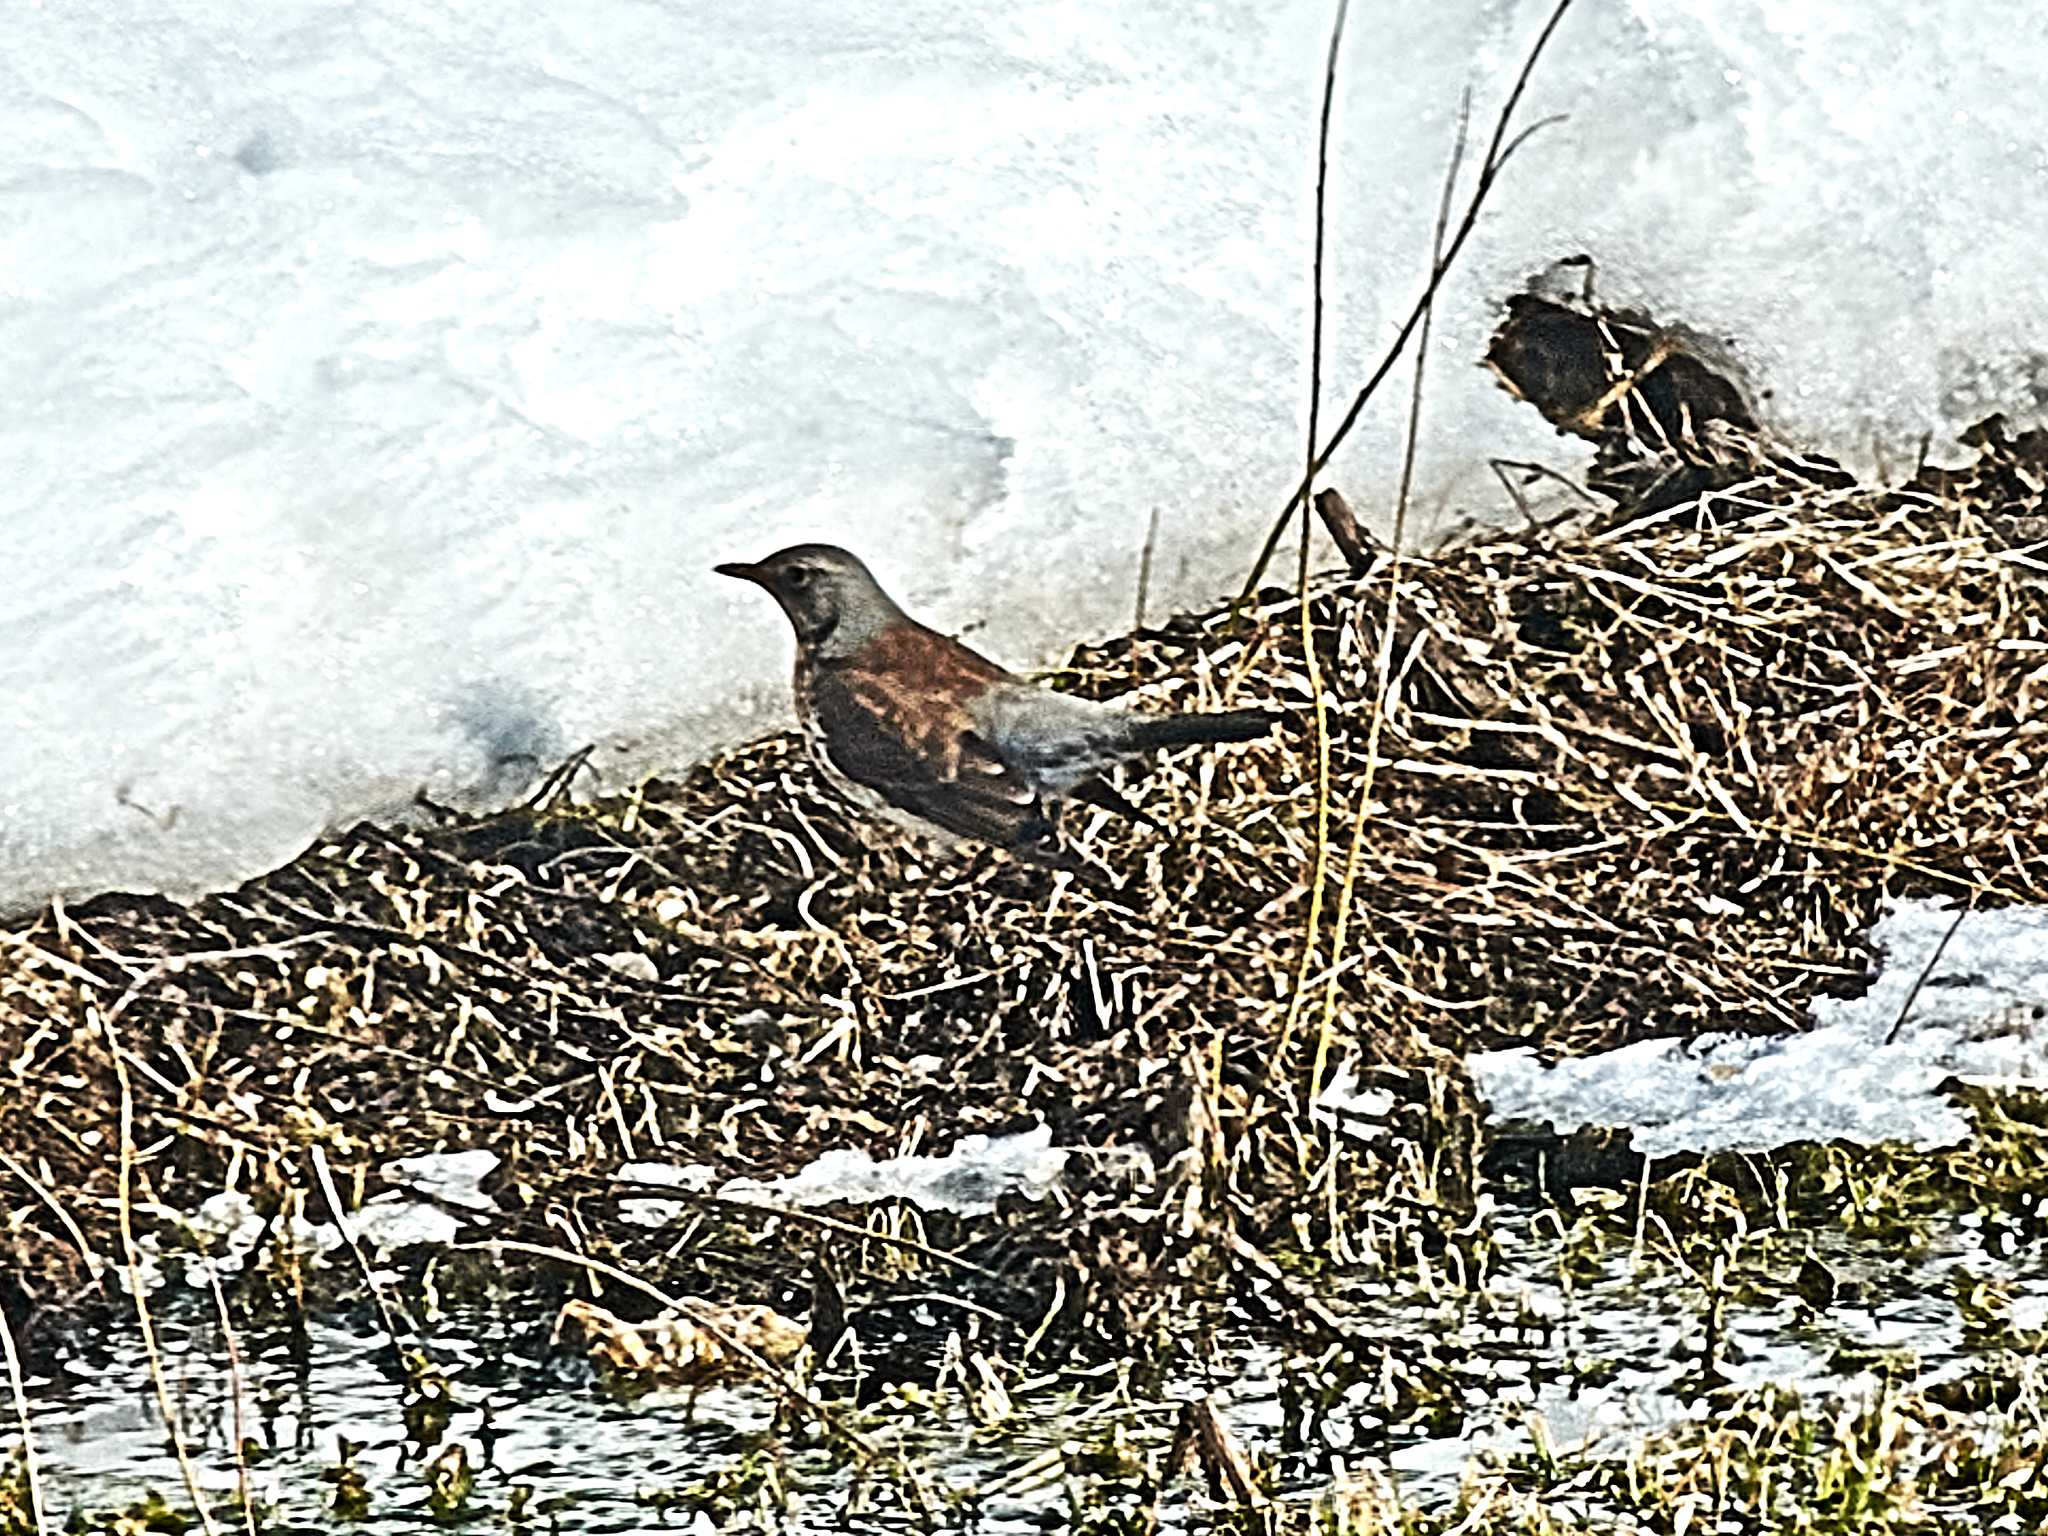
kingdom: Animalia
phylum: Chordata
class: Aves
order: Passeriformes
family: Turdidae
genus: Turdus
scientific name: Turdus pilaris
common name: Fieldfare
